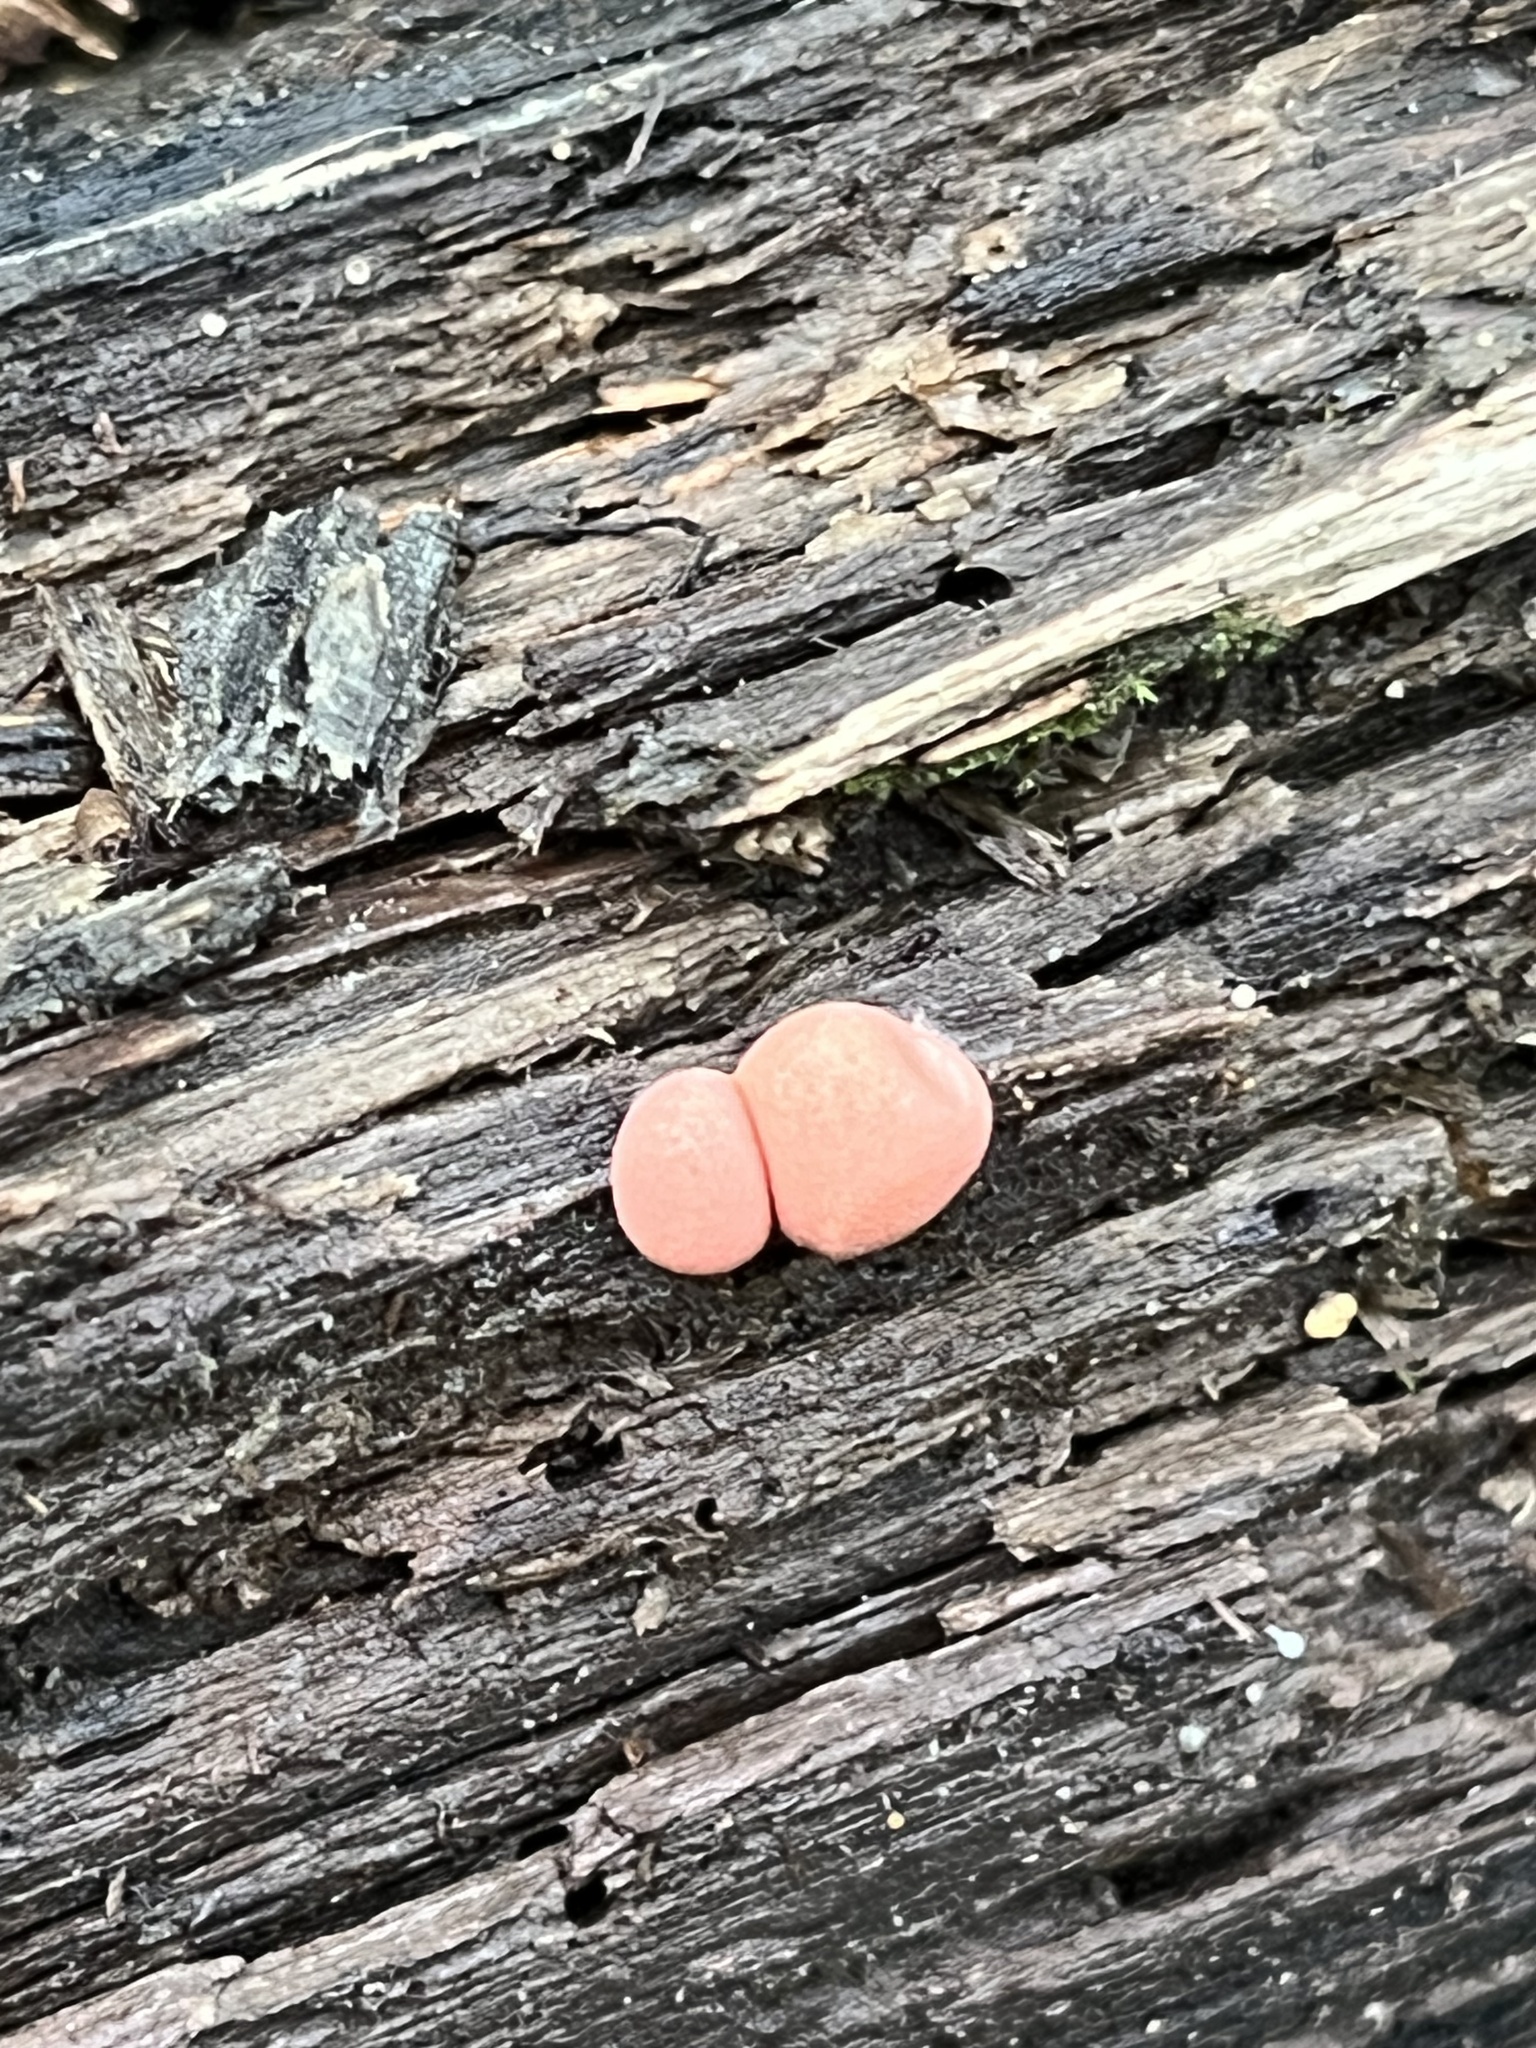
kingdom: Protozoa
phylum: Mycetozoa
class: Myxomycetes
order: Cribrariales
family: Tubiferaceae
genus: Lycogala
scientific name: Lycogala epidendrum
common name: Wolf's milk
